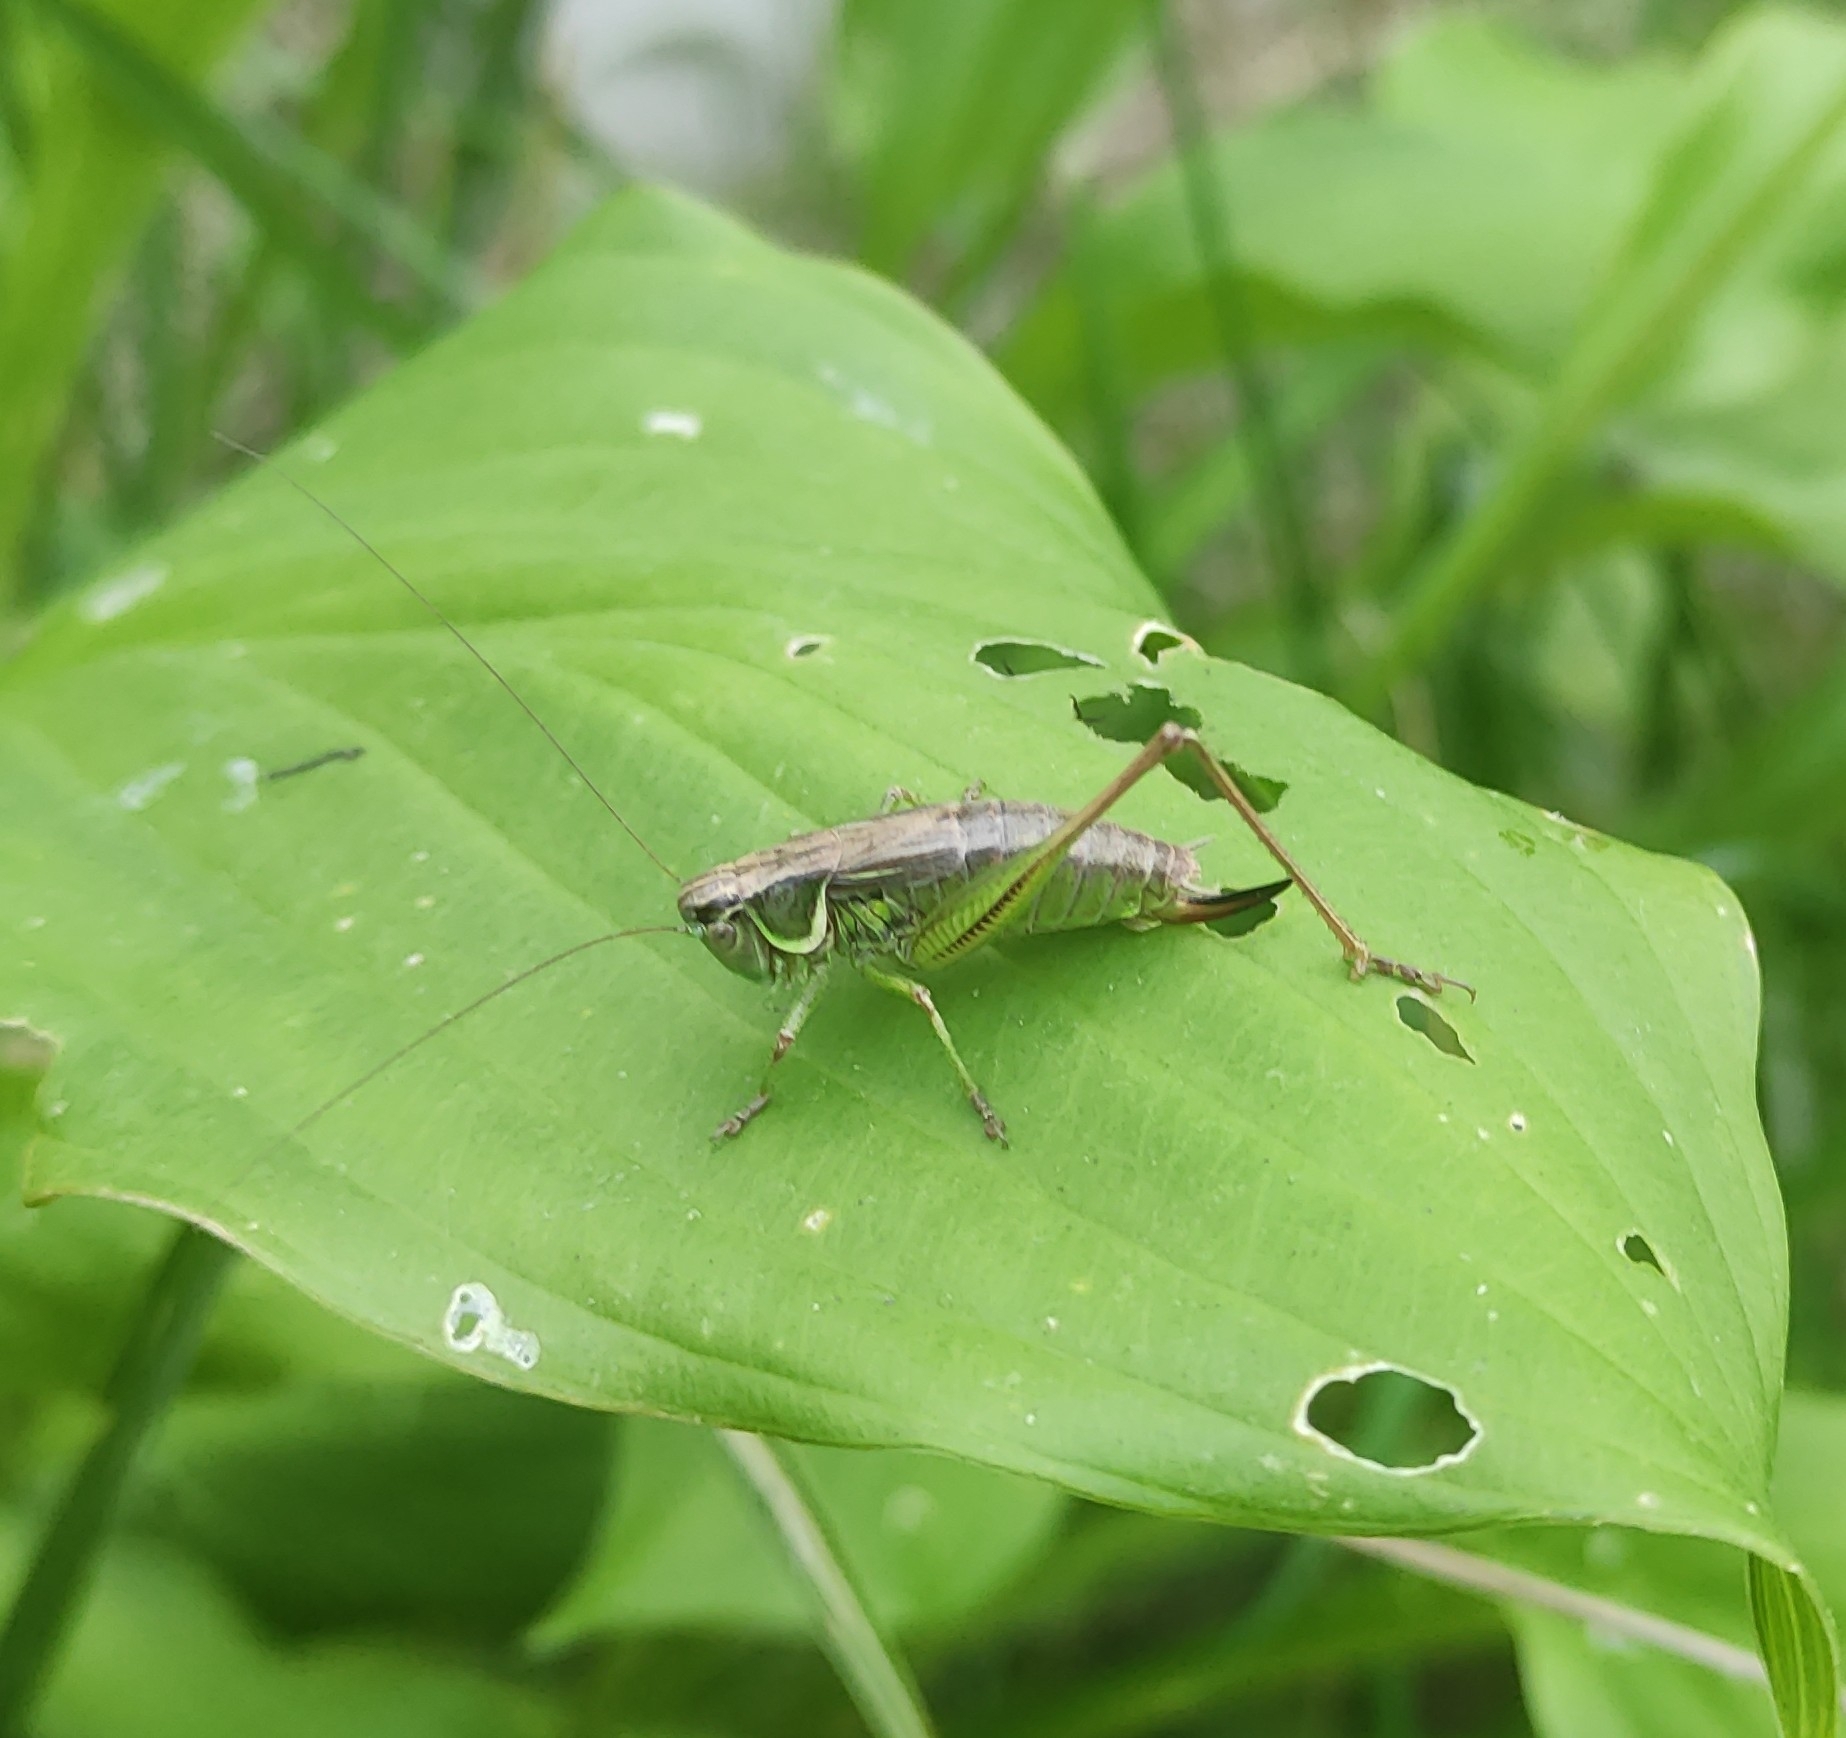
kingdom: Animalia
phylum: Arthropoda
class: Insecta
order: Orthoptera
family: Tettigoniidae
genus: Roeseliana
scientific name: Roeseliana roeselii
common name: Roesel's bush cricket
